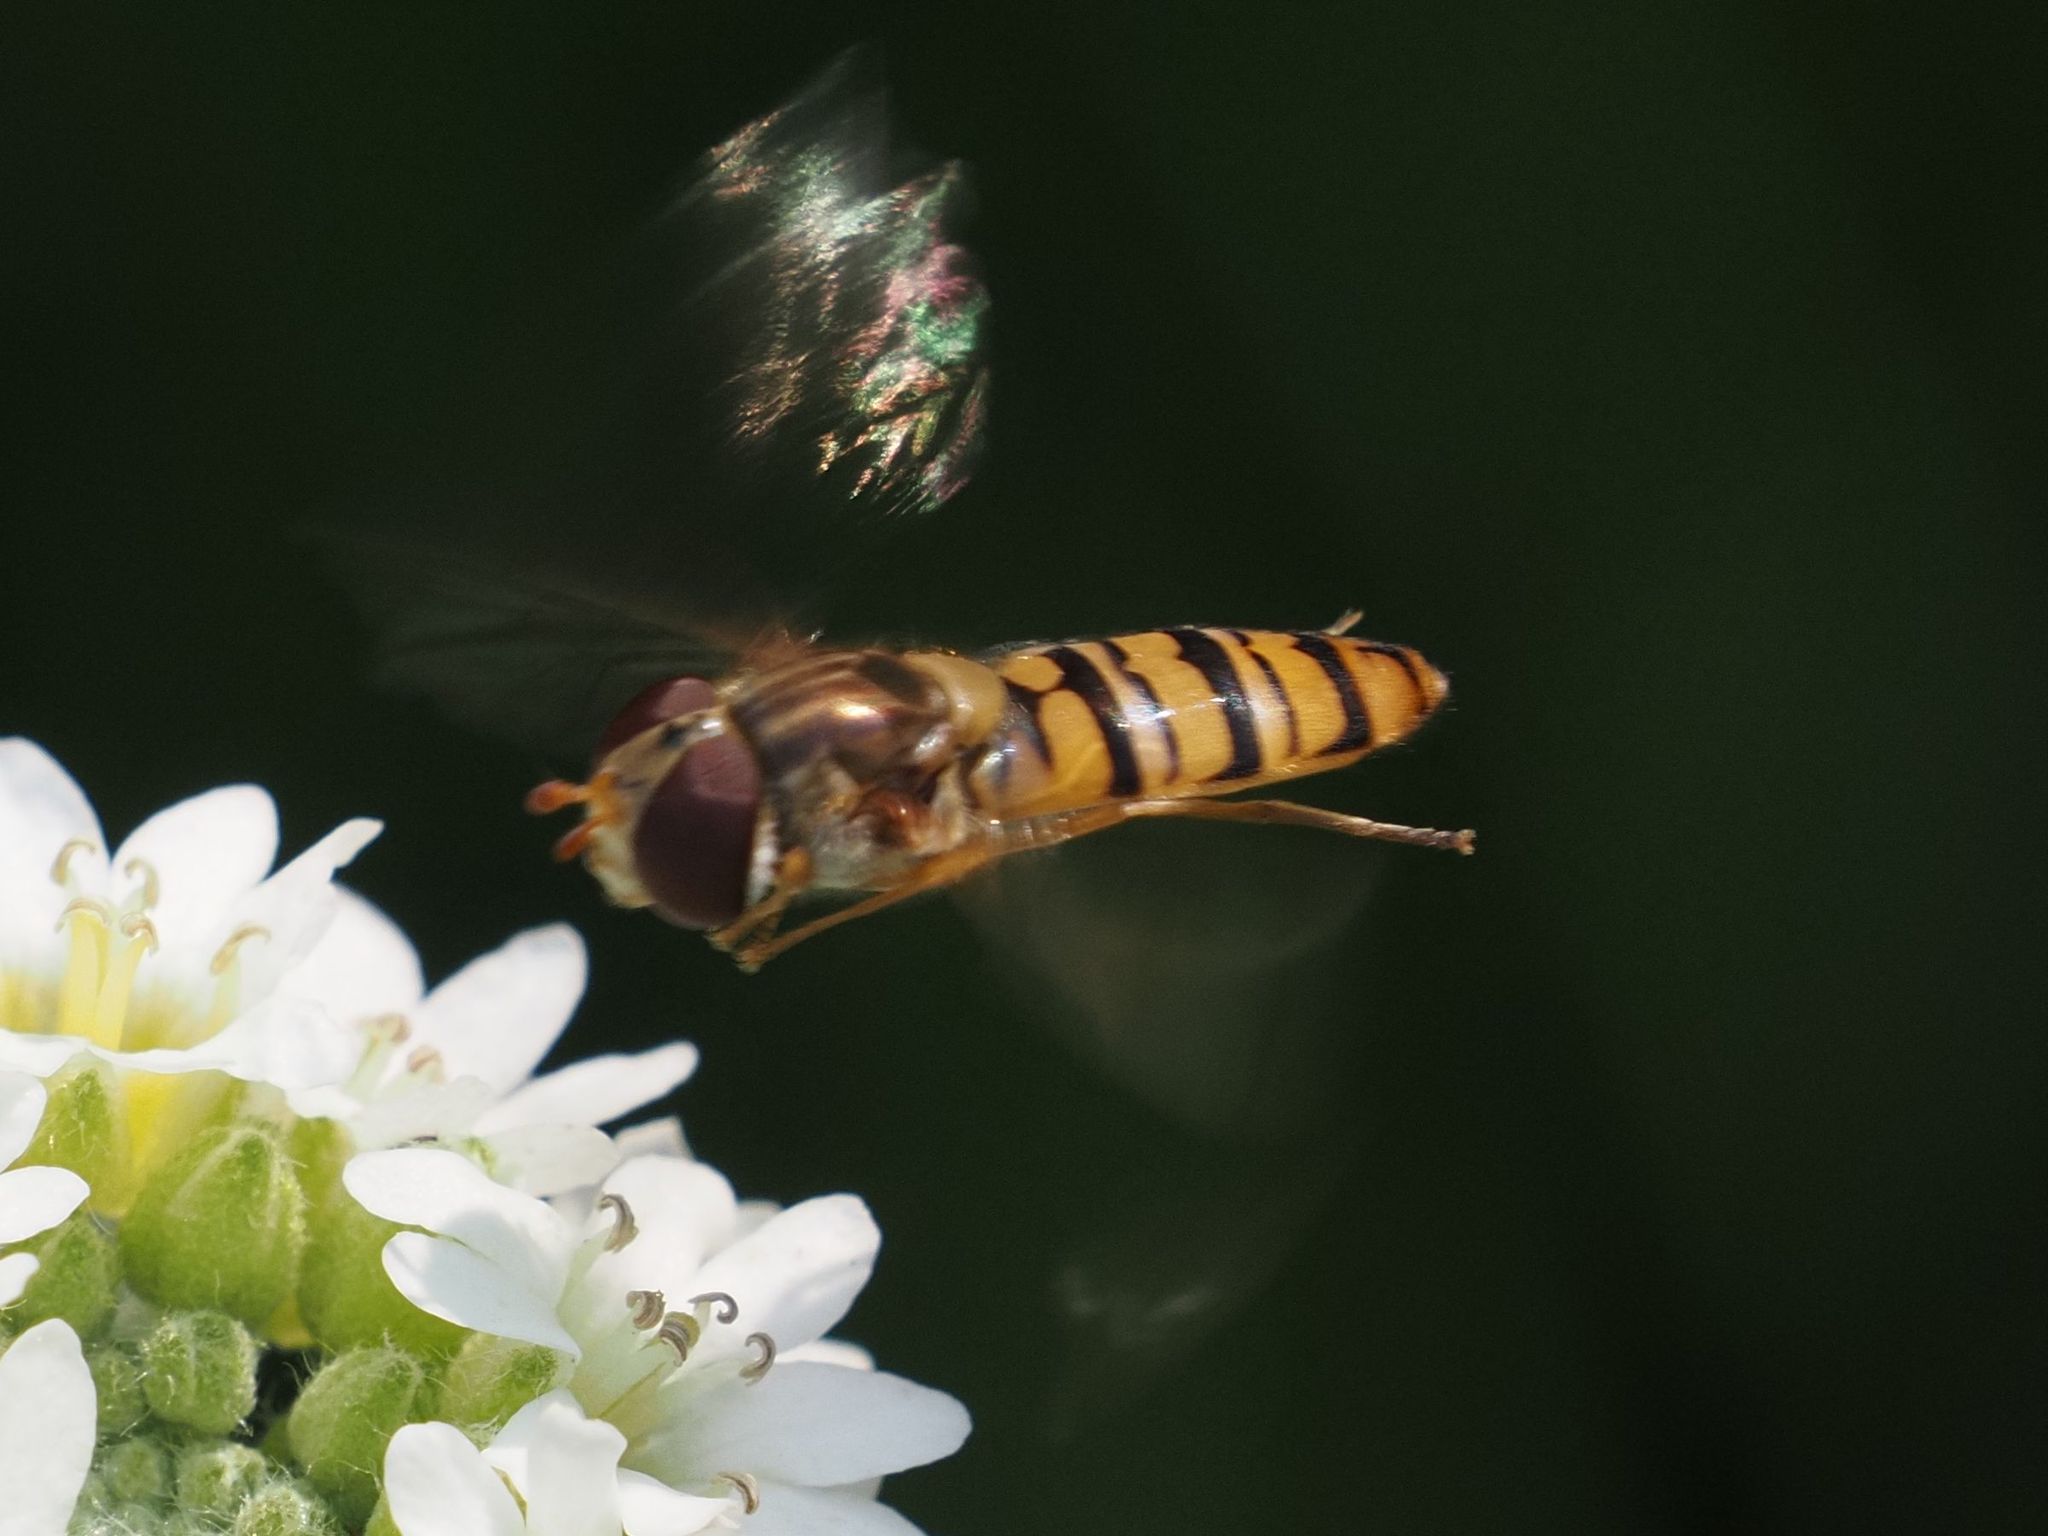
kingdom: Animalia
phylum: Arthropoda
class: Insecta
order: Diptera
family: Syrphidae
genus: Episyrphus
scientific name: Episyrphus balteatus
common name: Marmalade hoverfly
